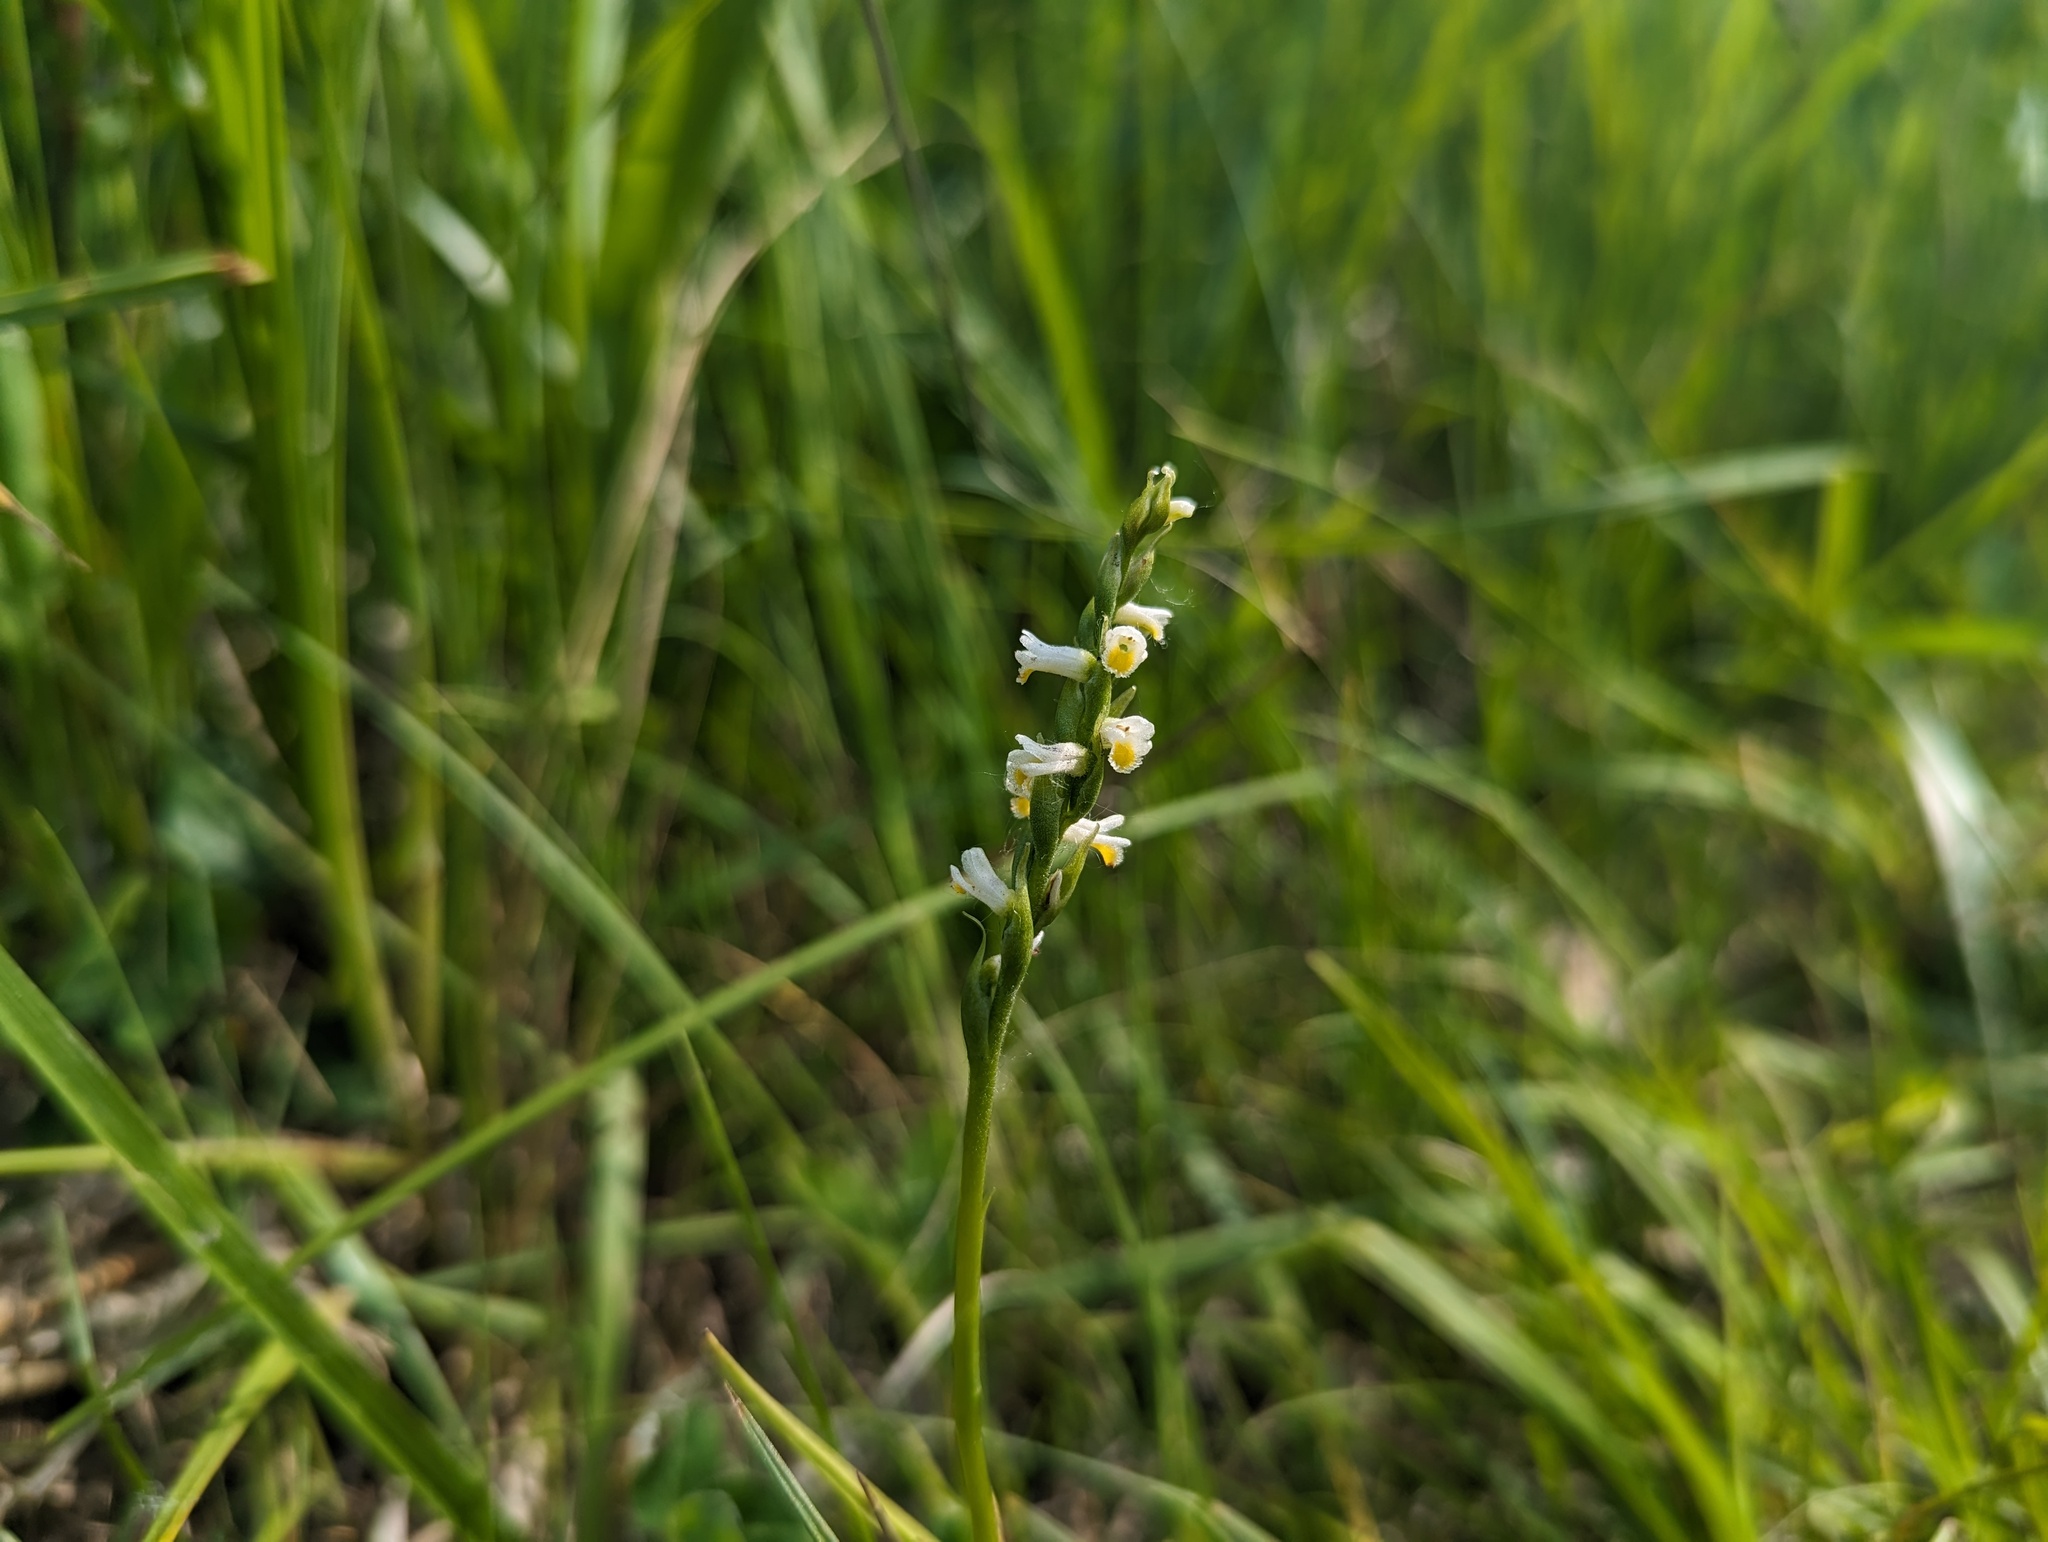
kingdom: Plantae
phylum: Tracheophyta
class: Liliopsida
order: Asparagales
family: Orchidaceae
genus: Spiranthes
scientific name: Spiranthes lucida
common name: Broad-leaved ladies'-tresses
